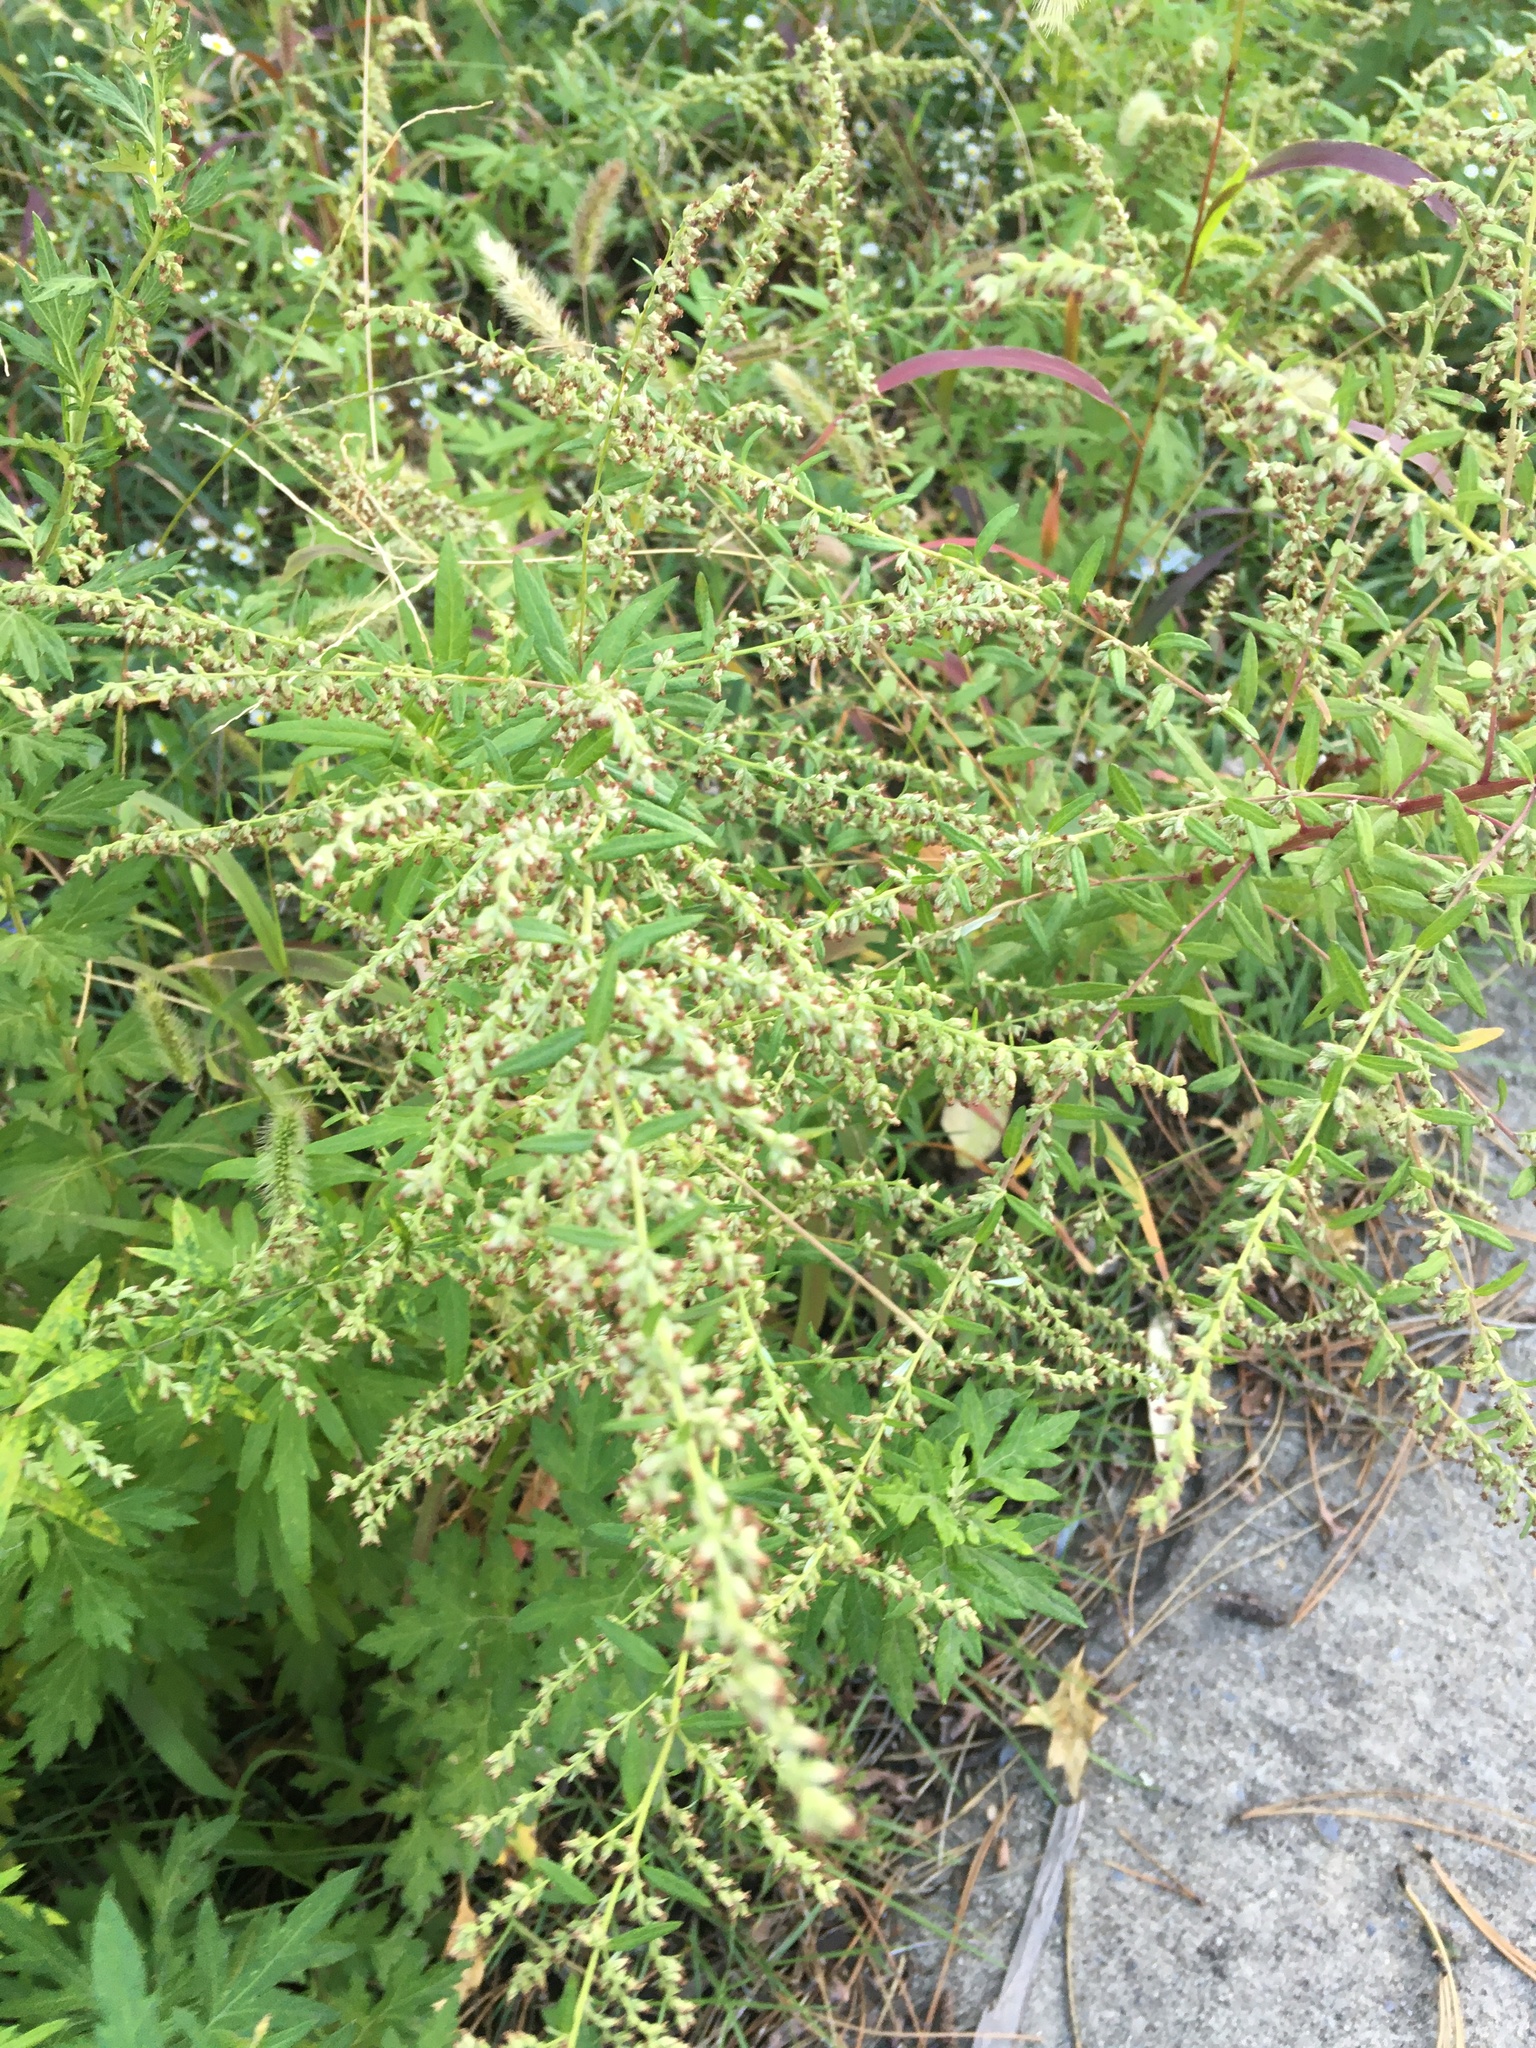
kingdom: Plantae
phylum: Tracheophyta
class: Magnoliopsida
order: Asterales
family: Asteraceae
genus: Artemisia
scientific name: Artemisia vulgaris
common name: Mugwort
